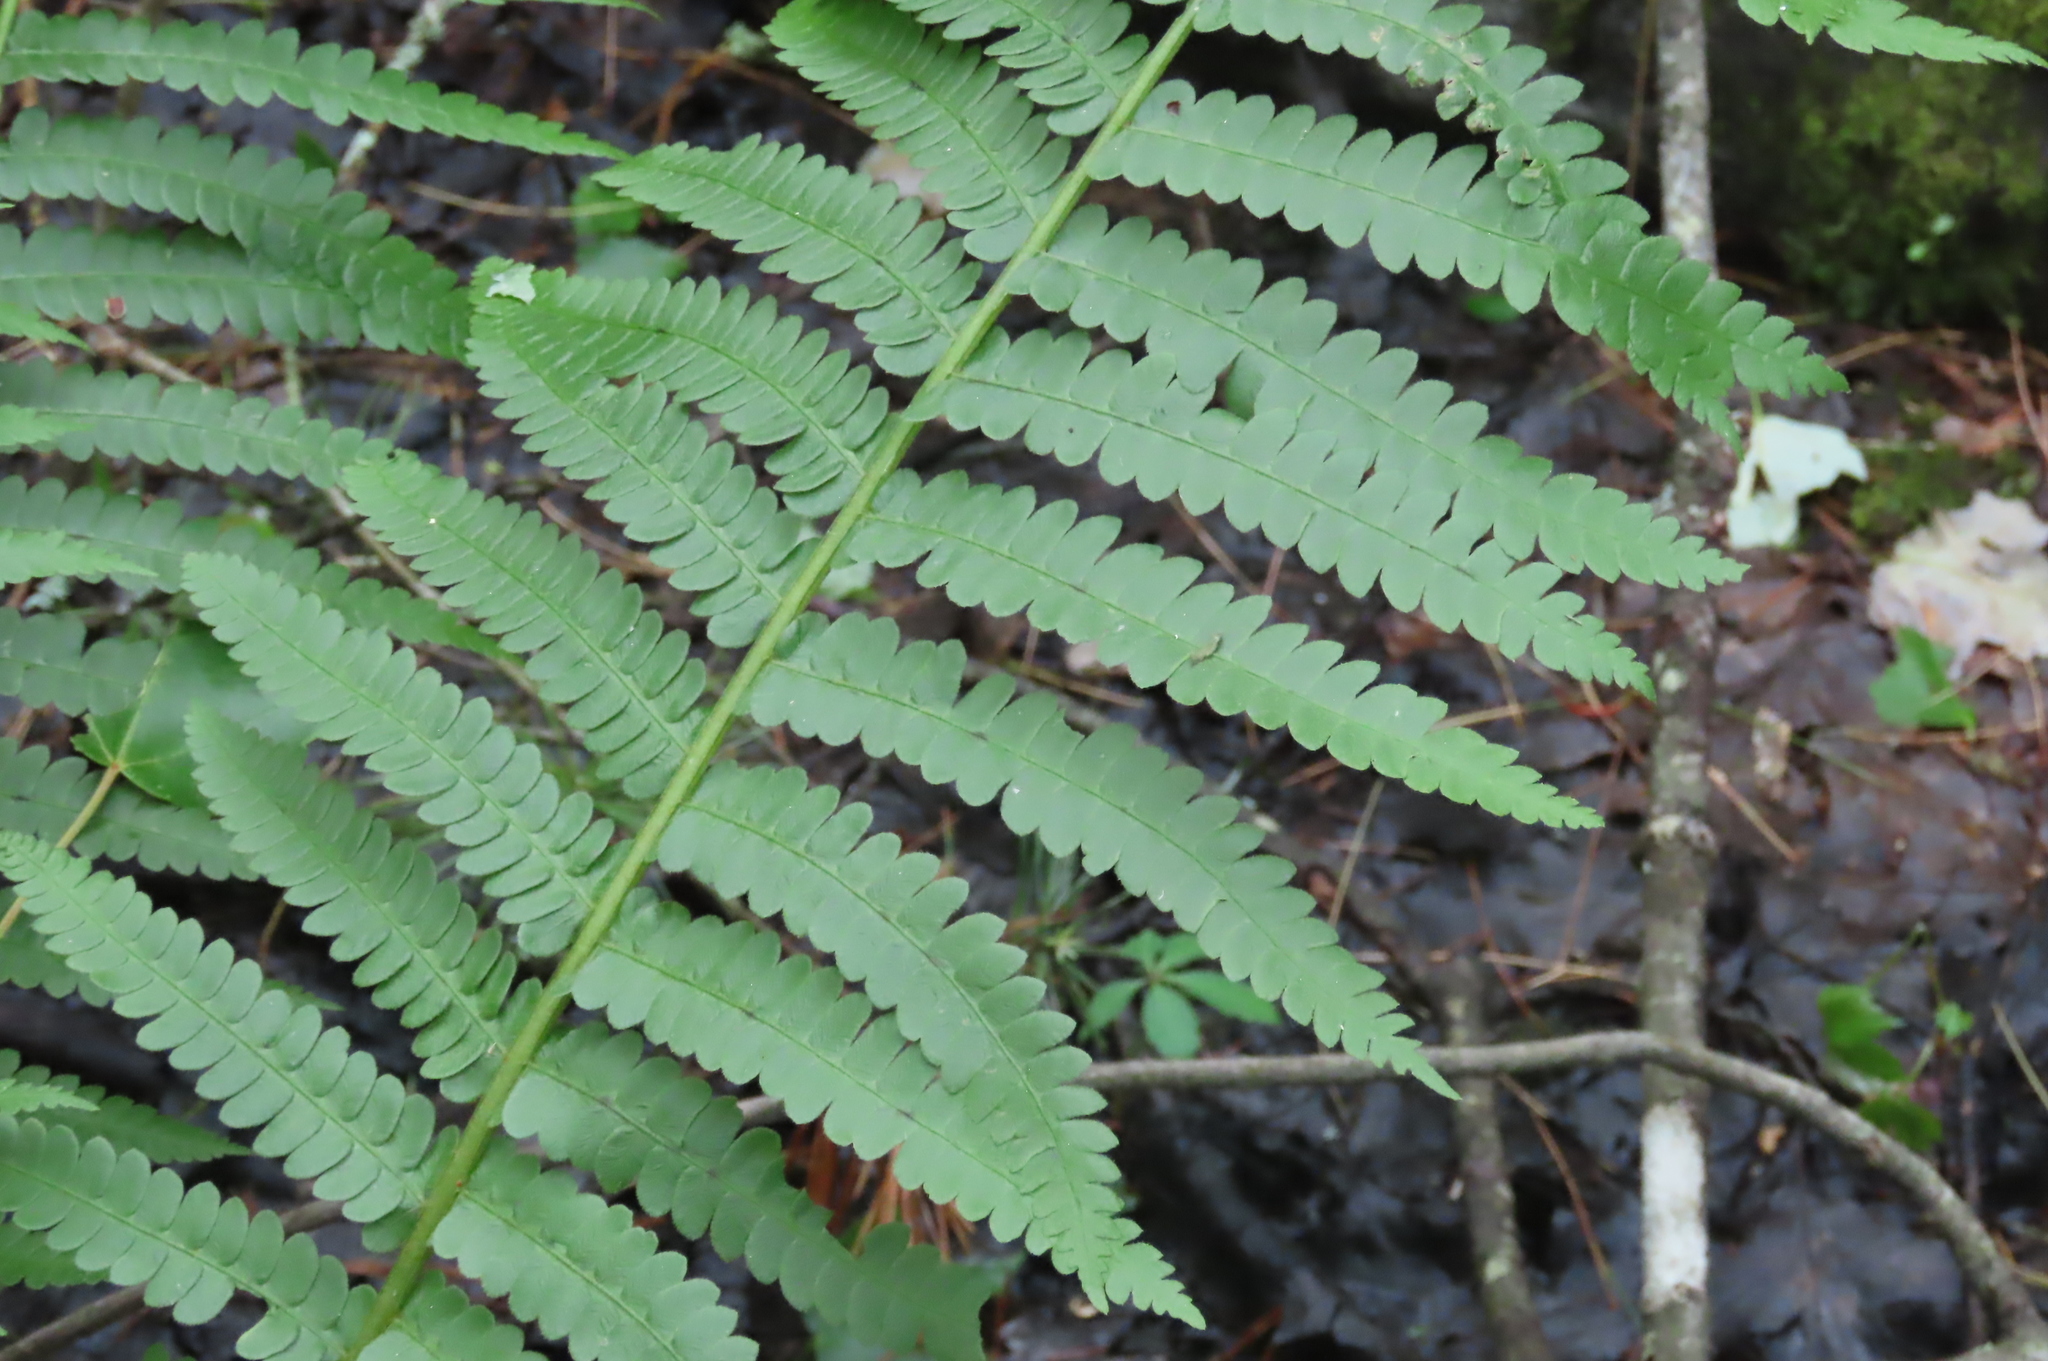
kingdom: Plantae
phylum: Tracheophyta
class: Polypodiopsida
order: Osmundales
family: Osmundaceae
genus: Osmundastrum
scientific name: Osmundastrum cinnamomeum
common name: Cinnamon fern
